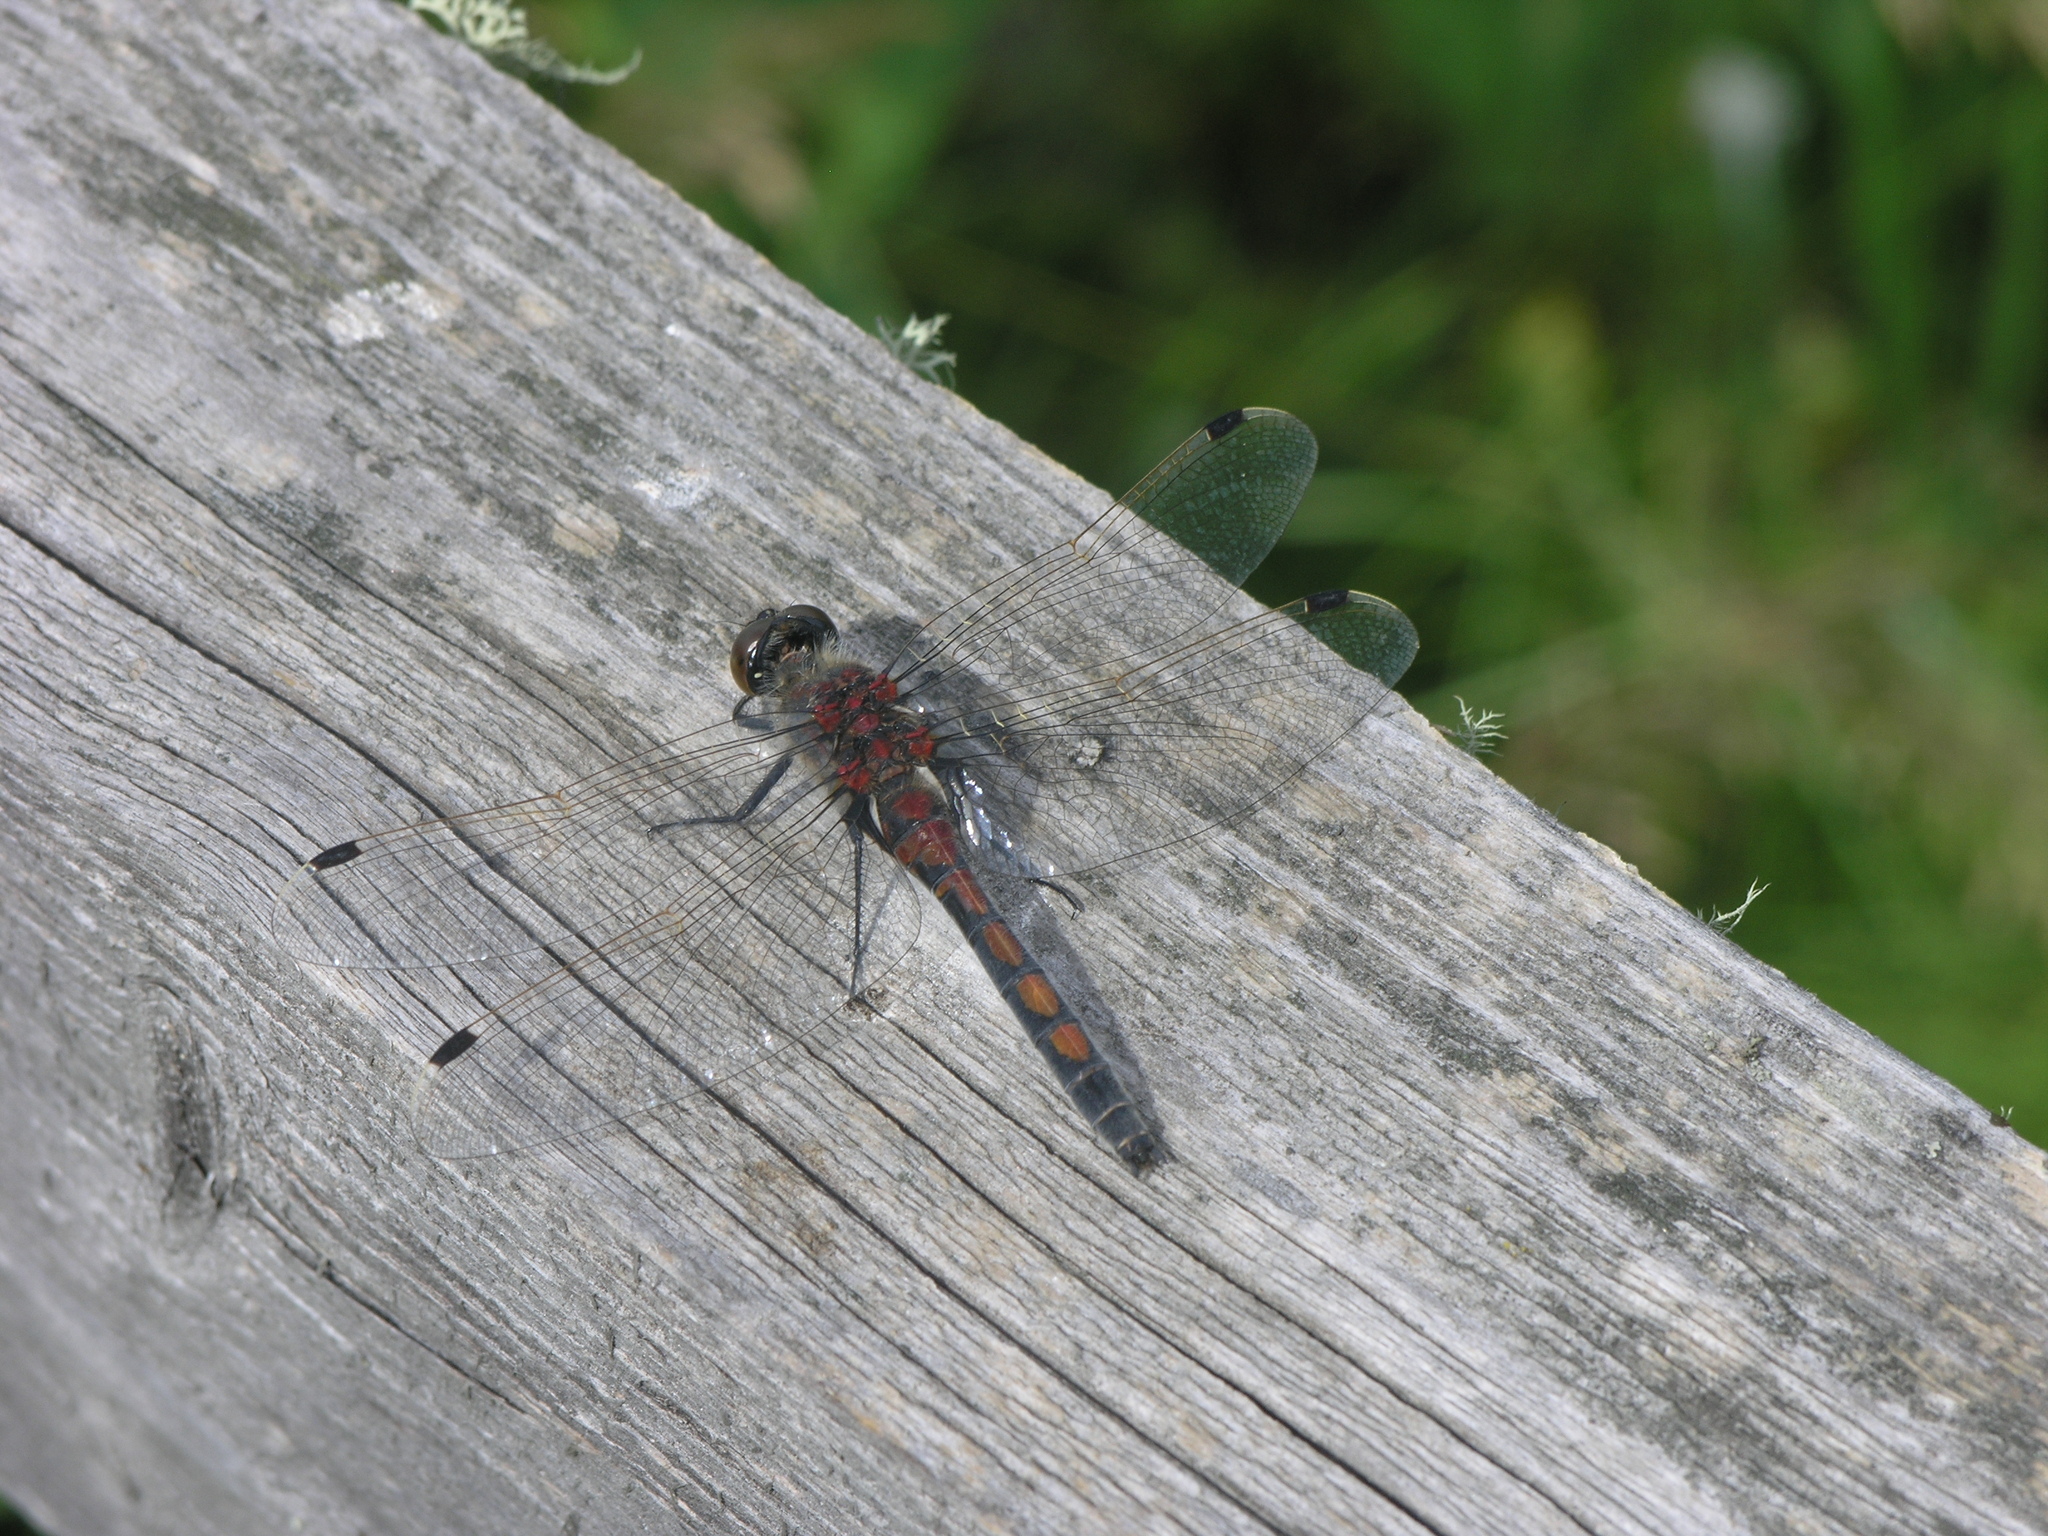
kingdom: Animalia
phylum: Arthropoda
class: Insecta
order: Odonata
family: Libellulidae
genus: Leucorrhinia
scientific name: Leucorrhinia rubicunda
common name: Ruby whiteface
